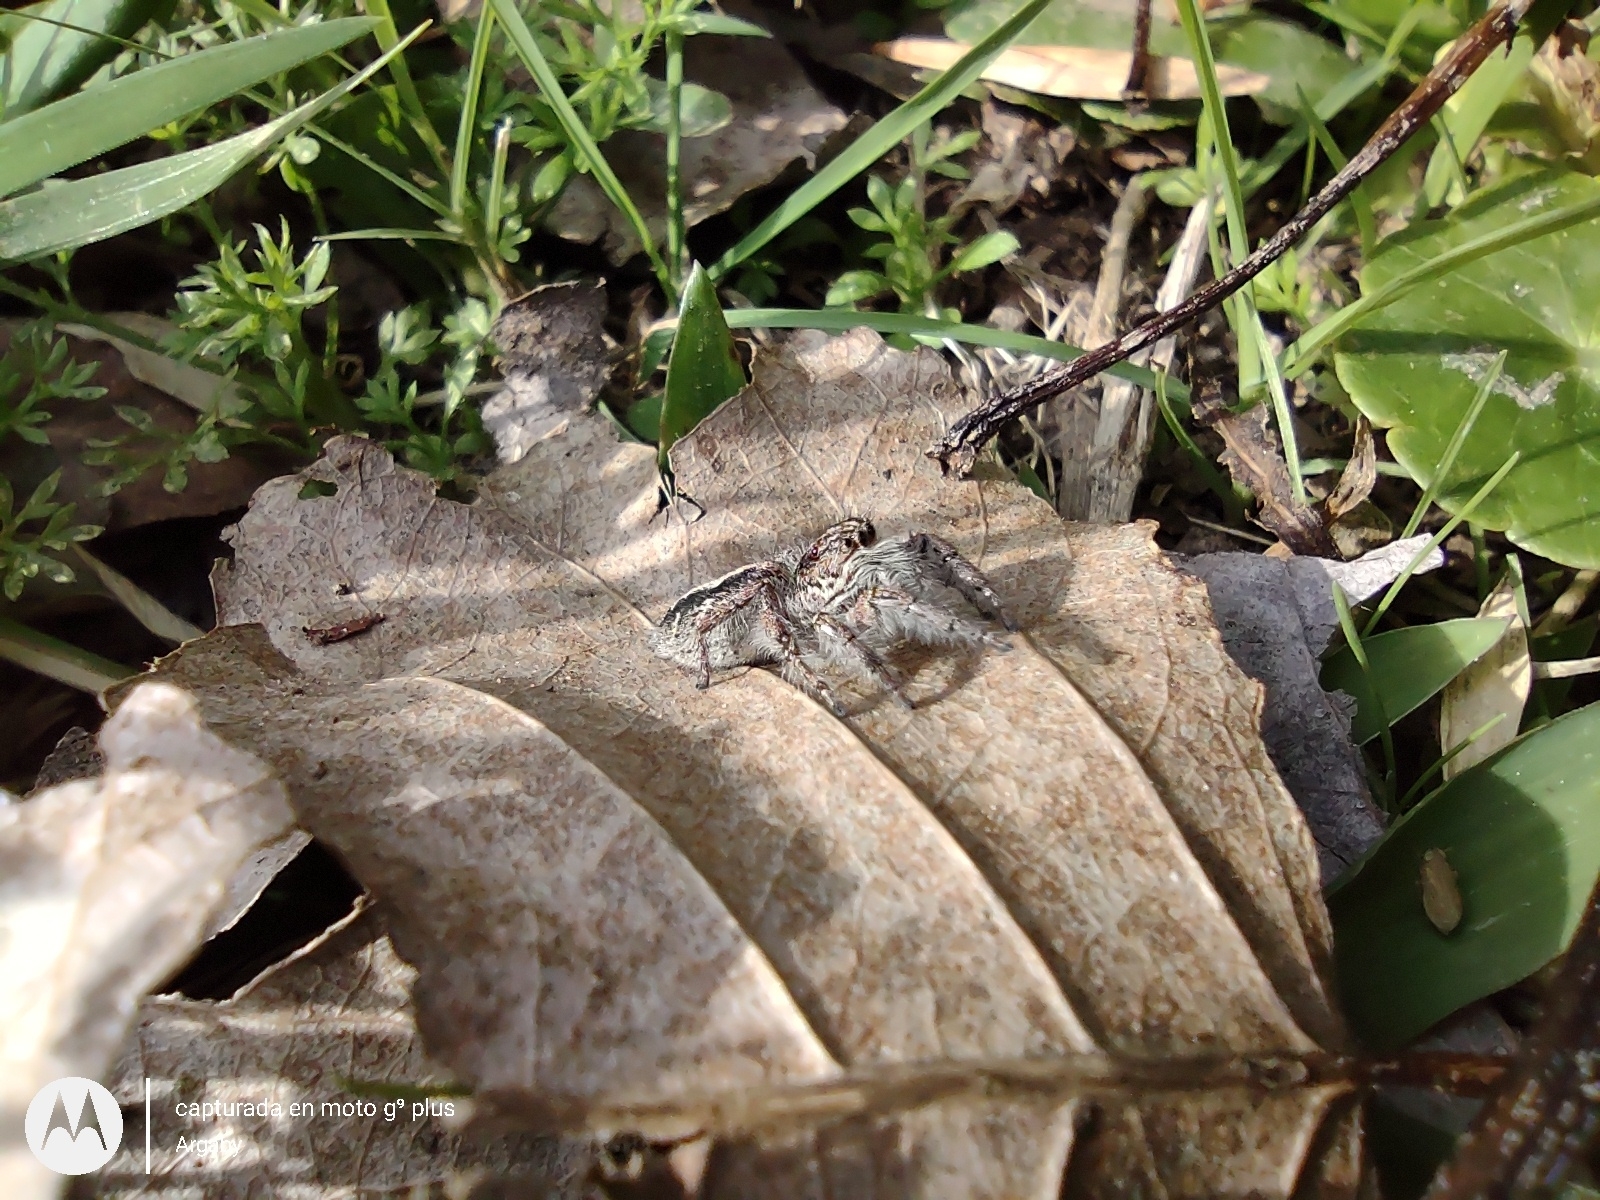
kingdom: Animalia
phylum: Arthropoda
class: Arachnida
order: Araneae
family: Salticidae
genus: Megafreya
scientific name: Megafreya sutrix
